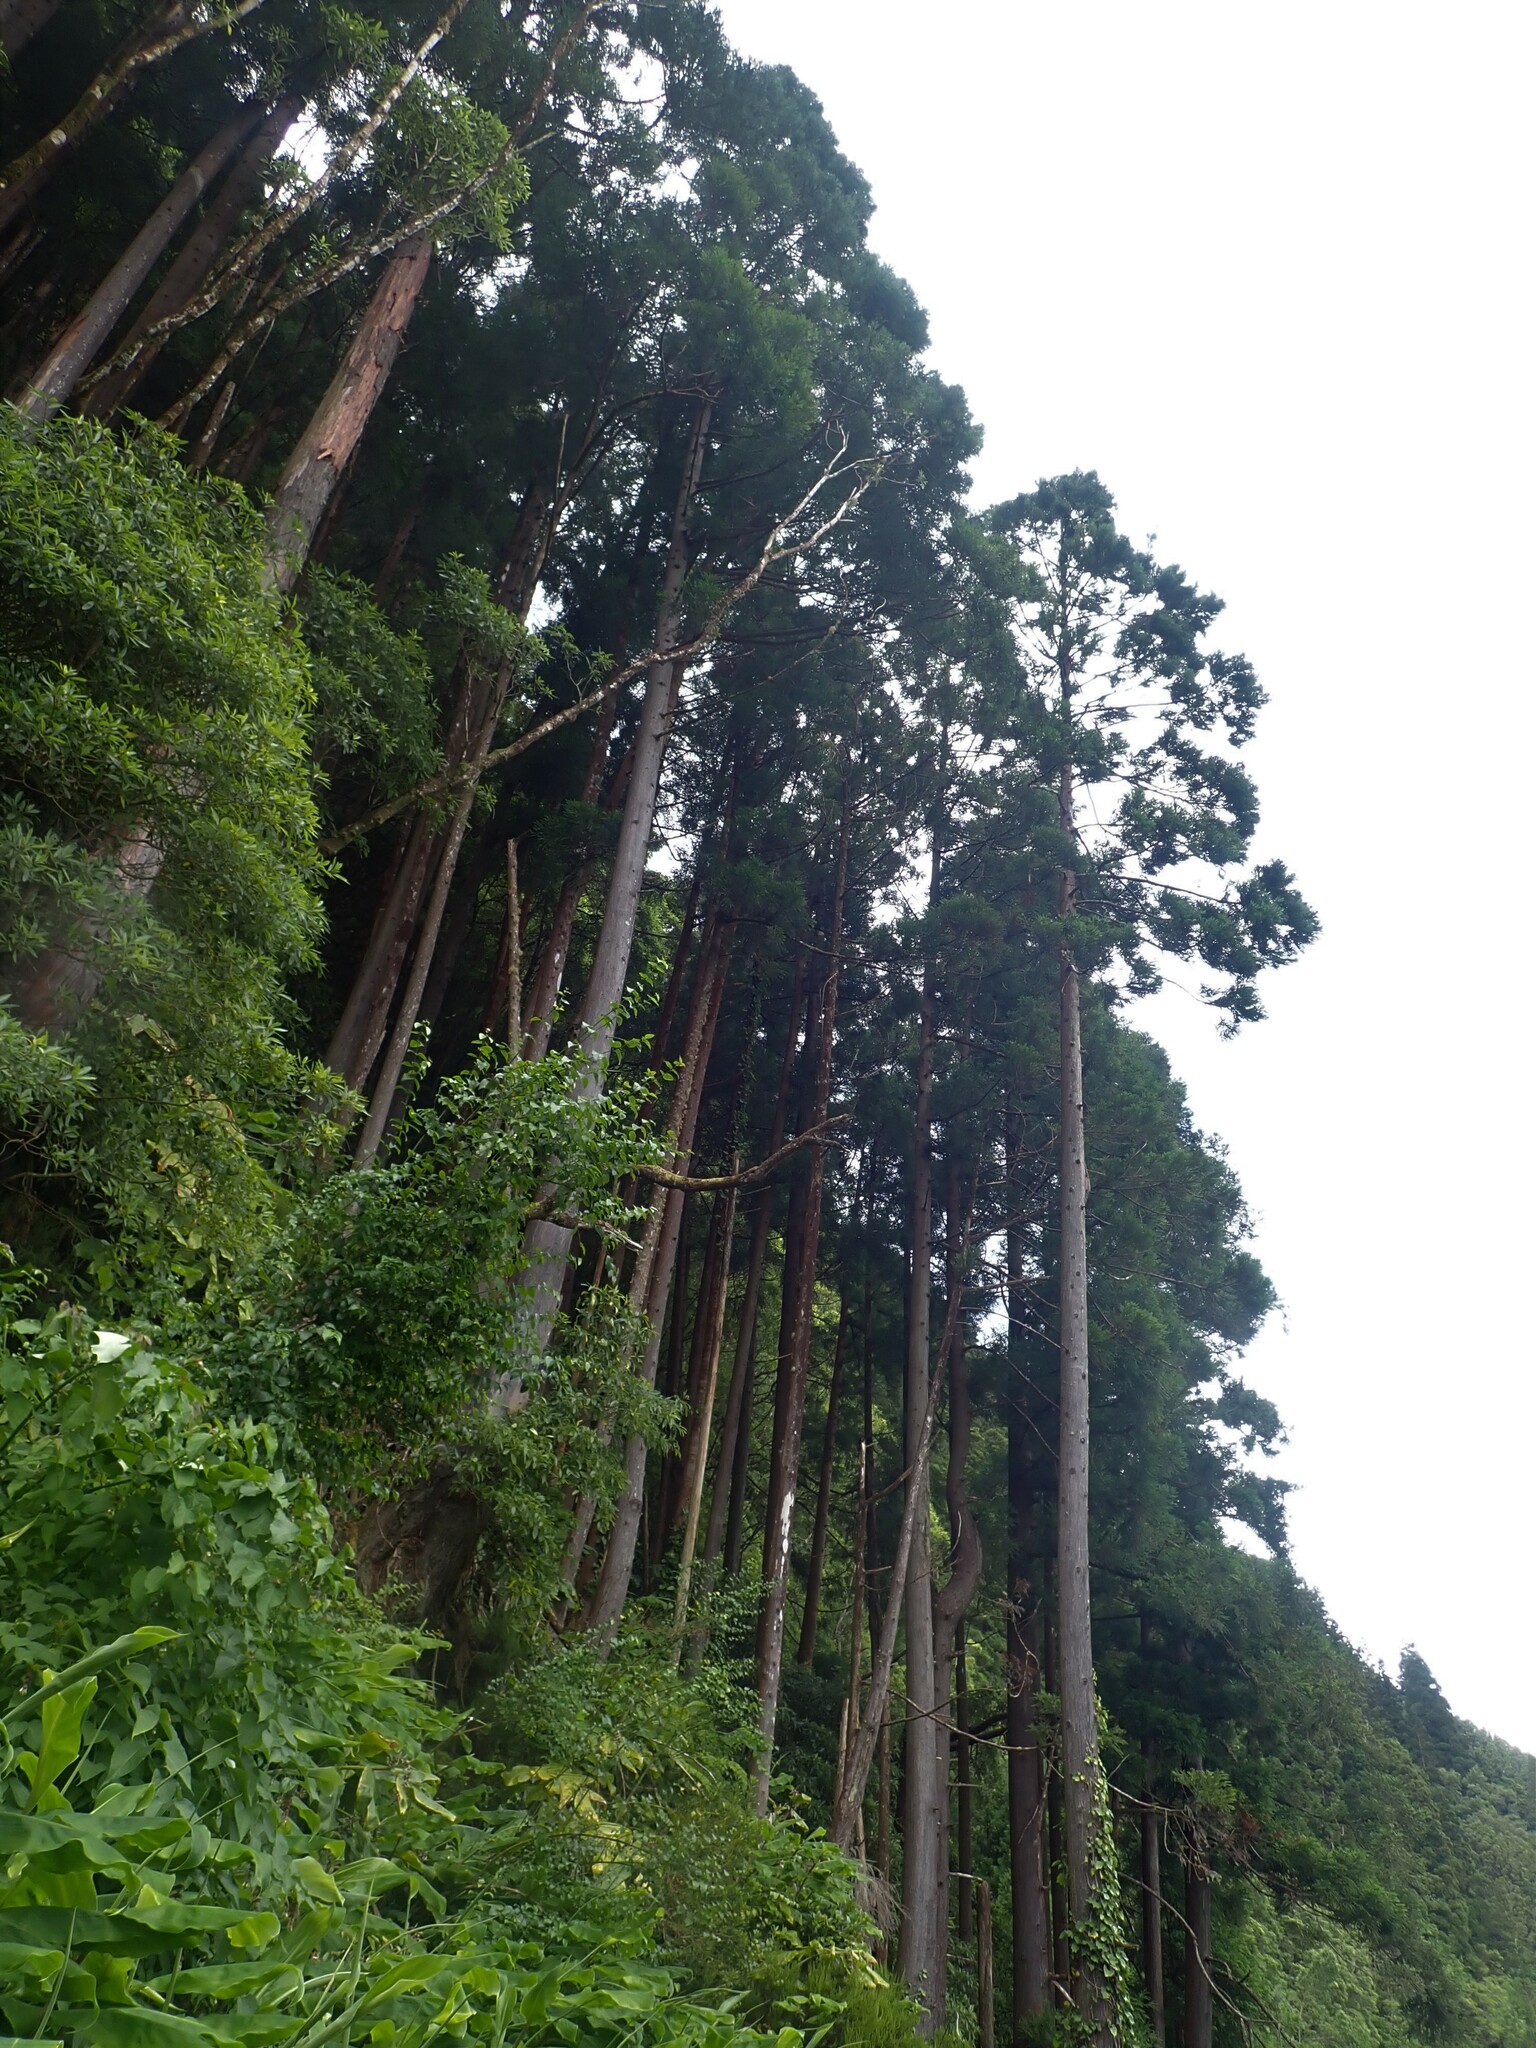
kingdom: Plantae
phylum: Tracheophyta
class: Pinopsida
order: Pinales
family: Cupressaceae
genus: Cryptomeria
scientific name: Cryptomeria japonica
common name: Japanese cedar
